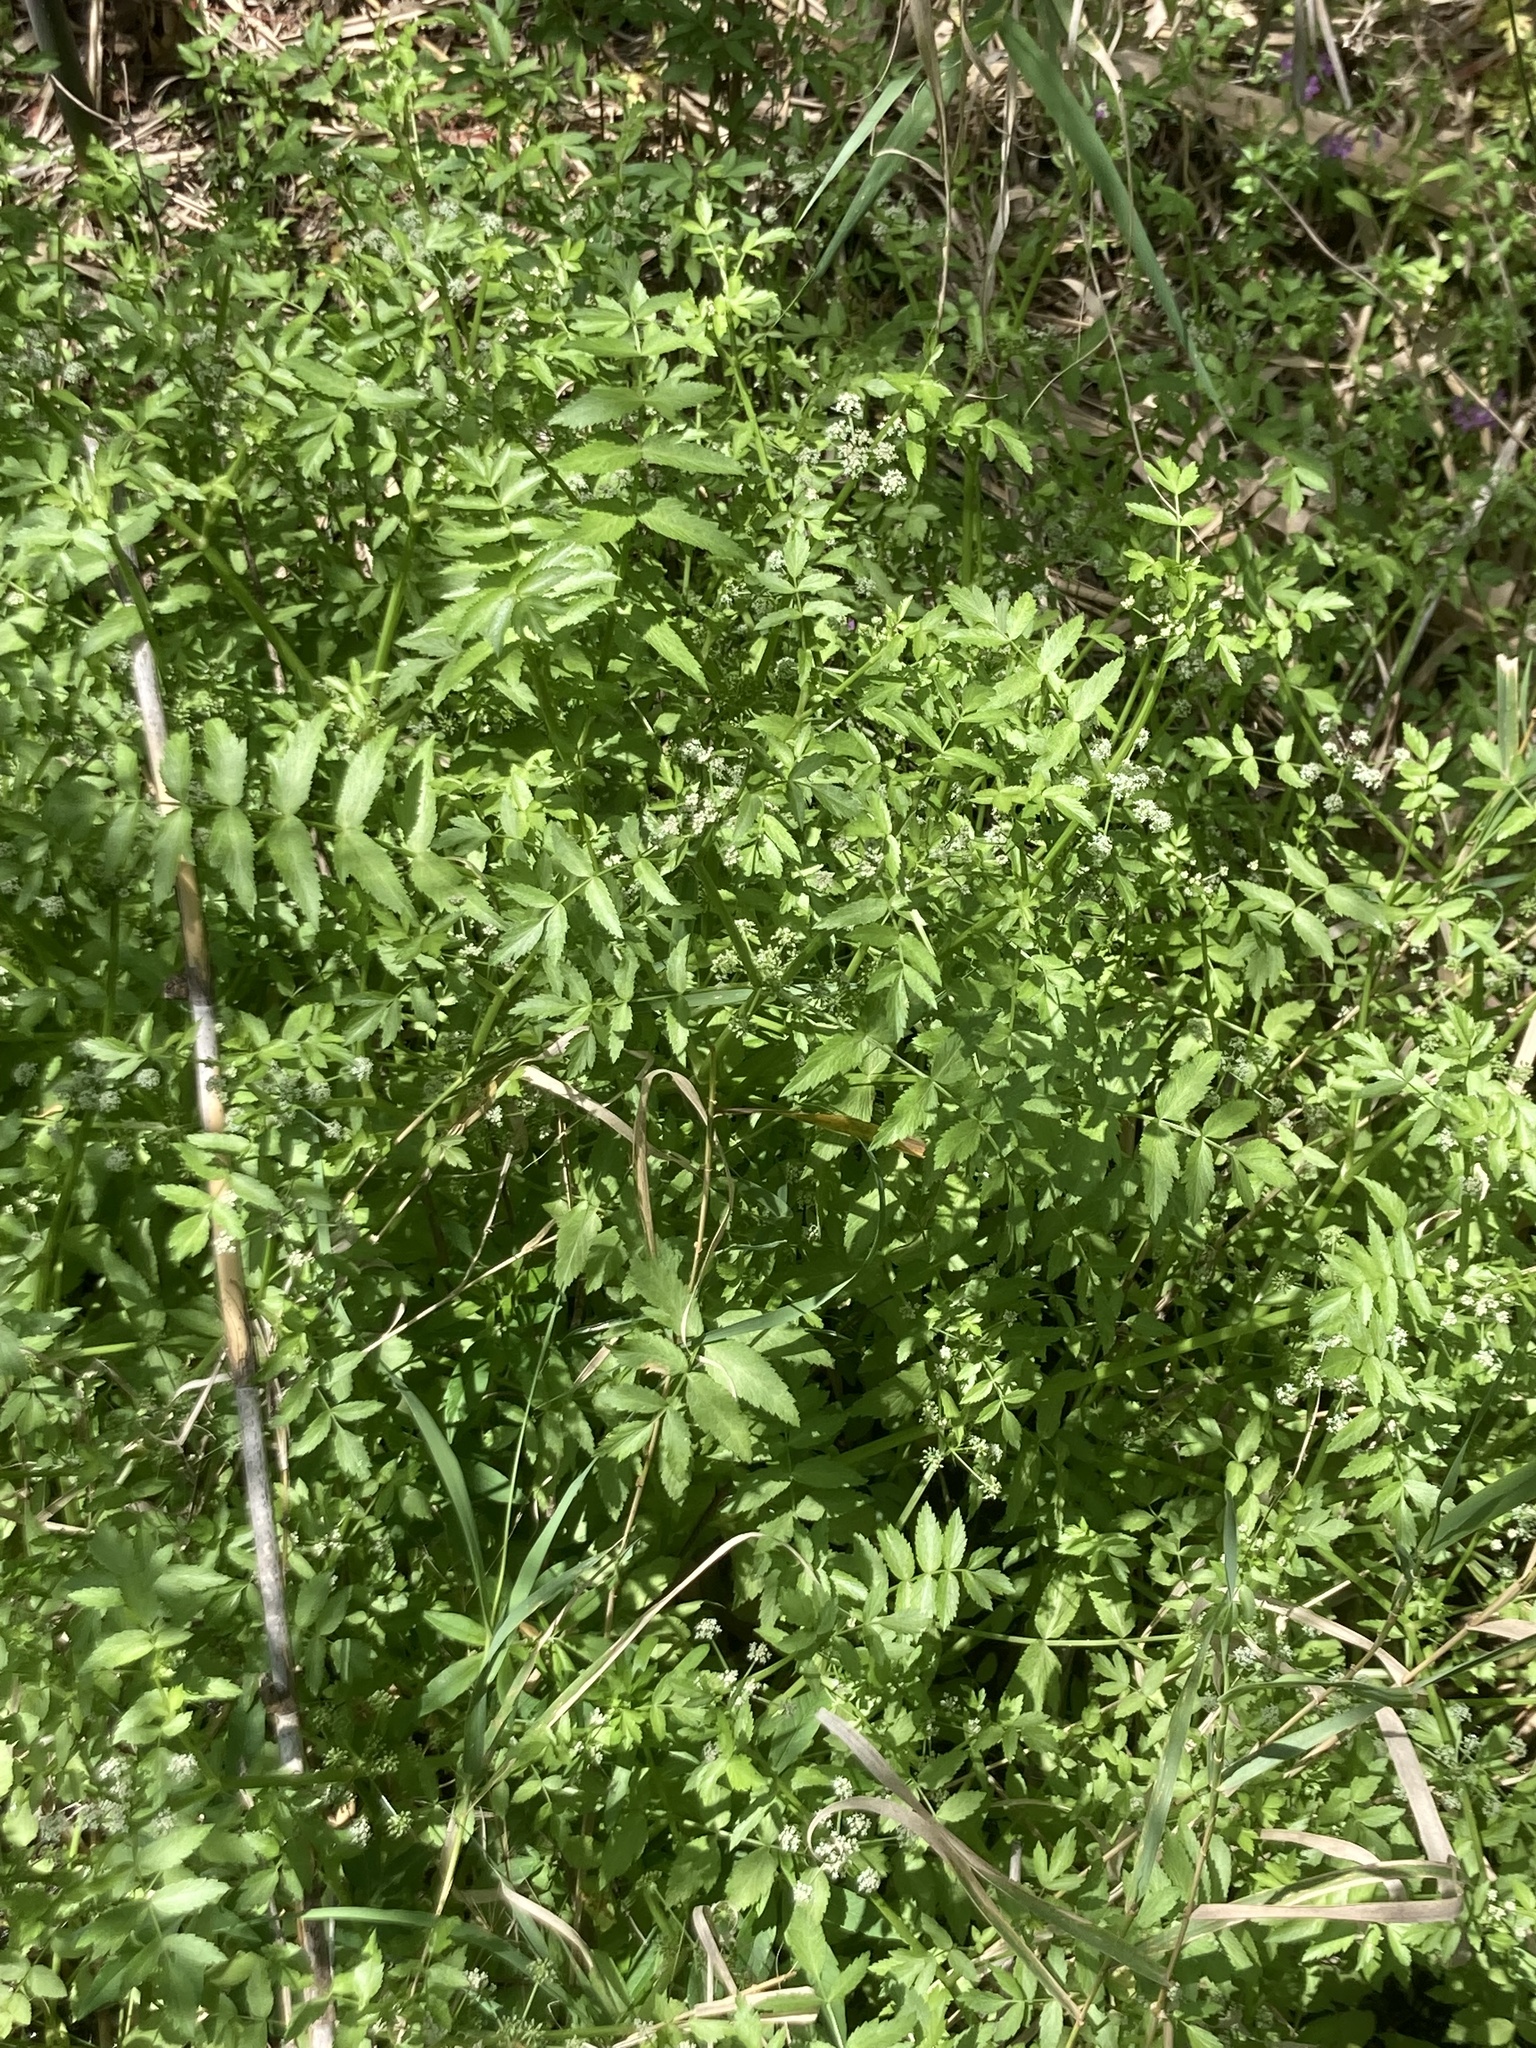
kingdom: Plantae
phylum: Tracheophyta
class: Magnoliopsida
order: Apiales
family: Apiaceae
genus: Helosciadium
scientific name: Helosciadium nodiflorum
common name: Fool's-watercress
